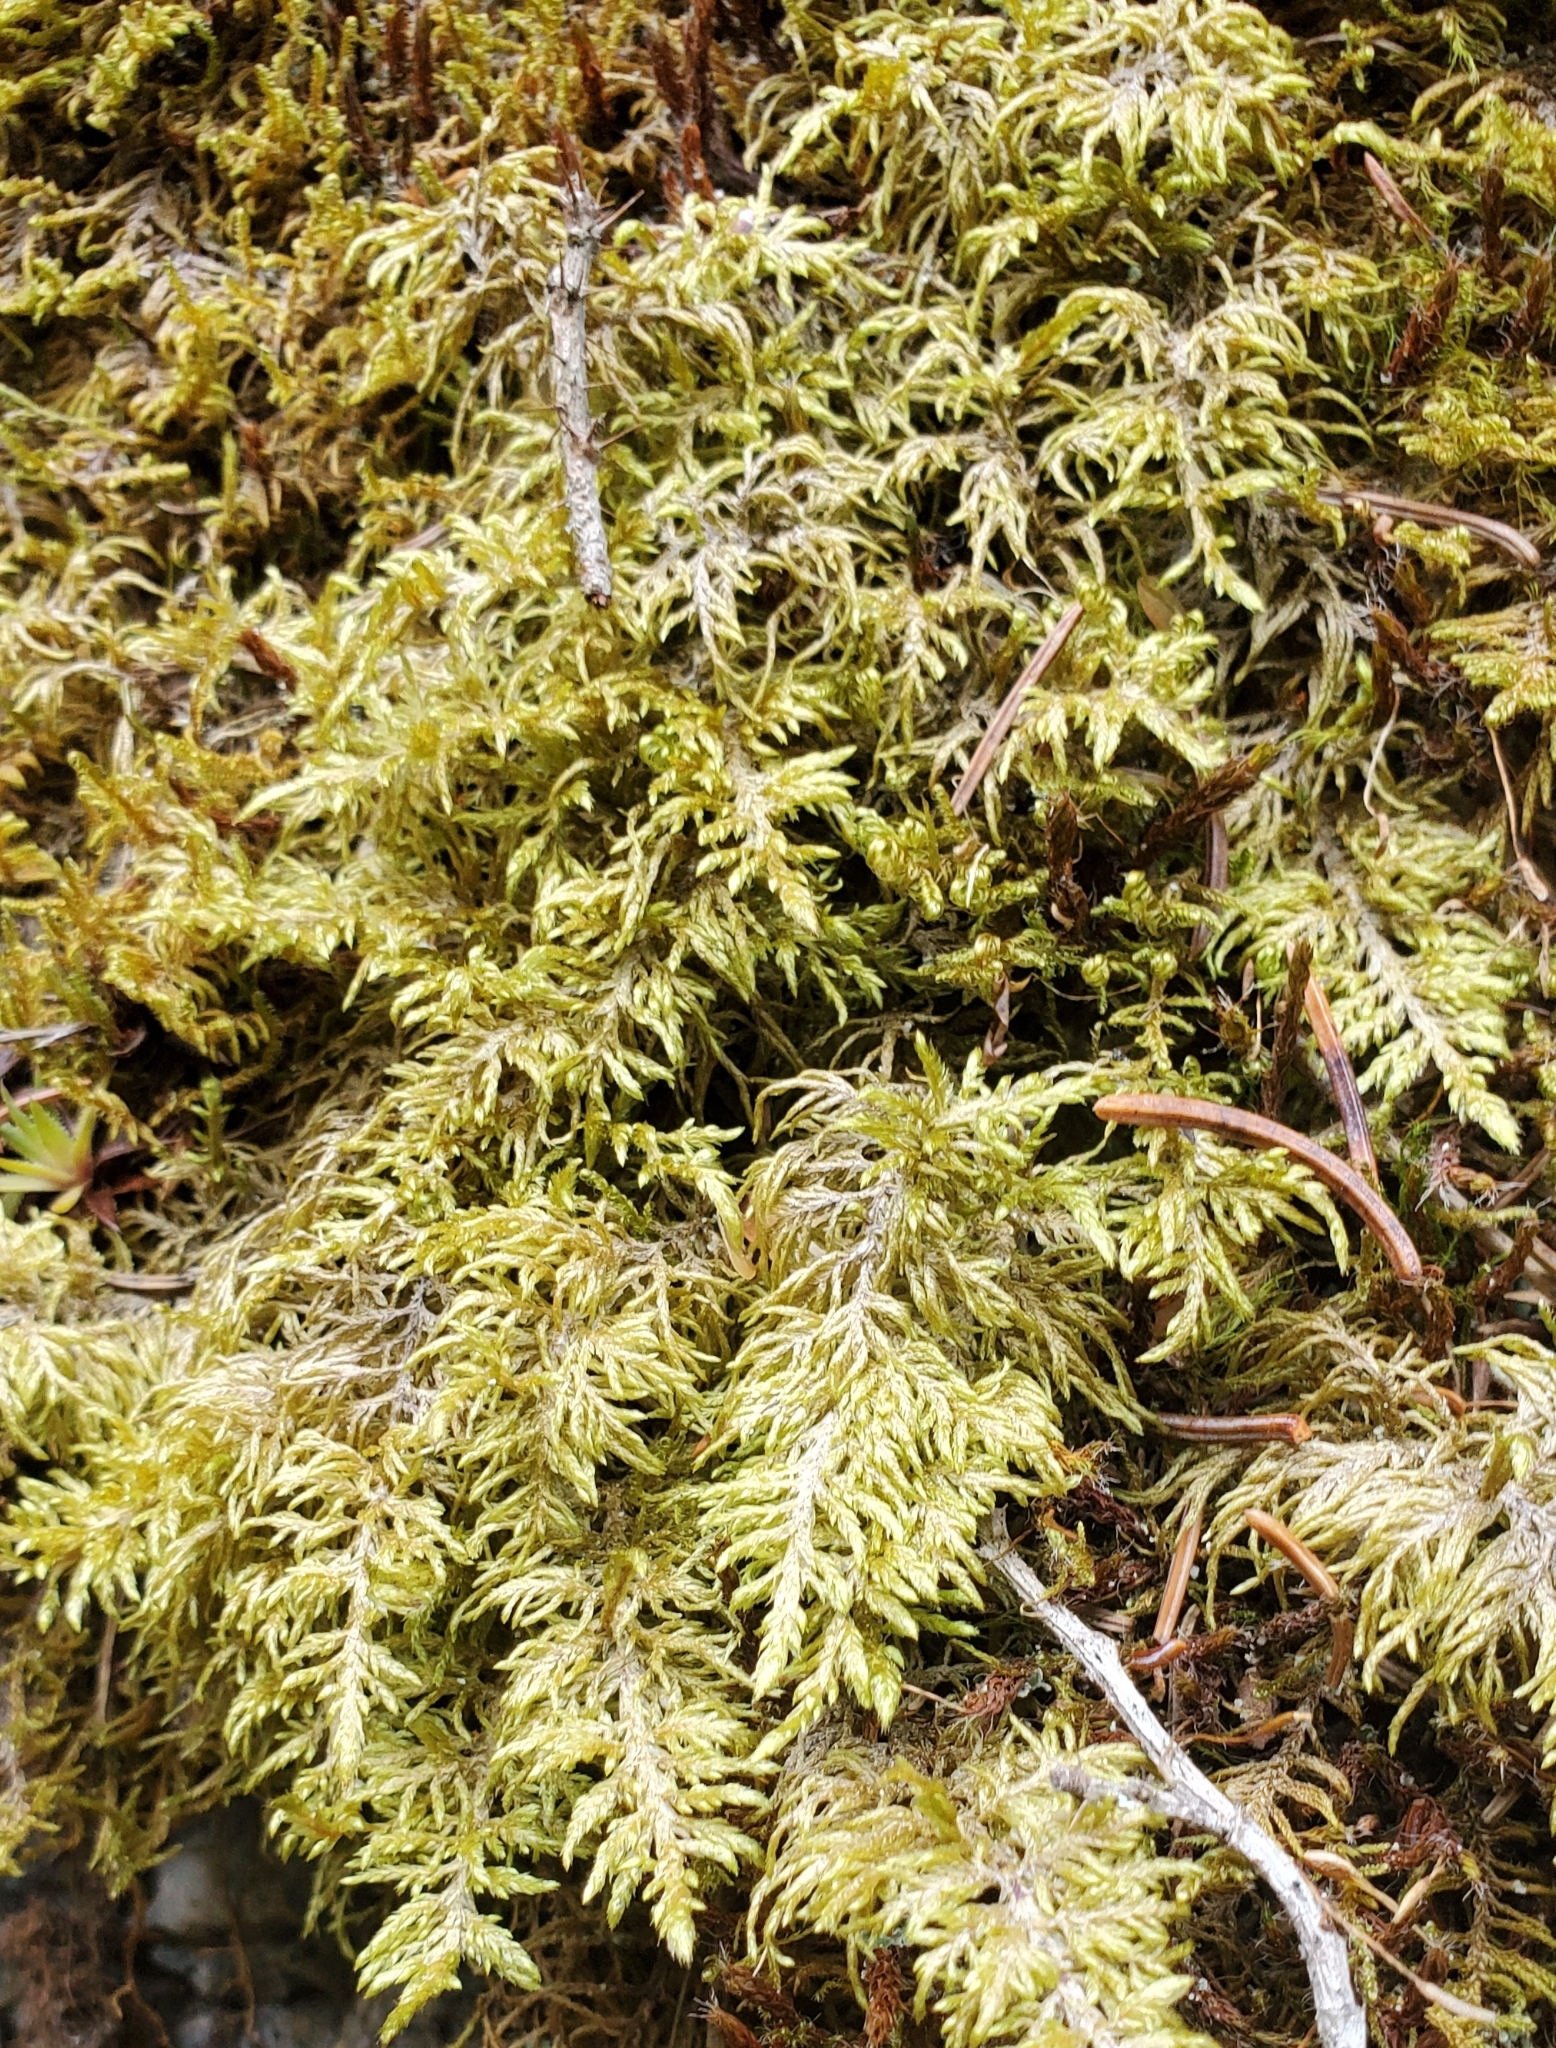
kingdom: Plantae
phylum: Bryophyta
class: Bryopsida
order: Hypnales
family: Hylocomiaceae
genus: Hylocomium
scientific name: Hylocomium splendens
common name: Stairstep moss
